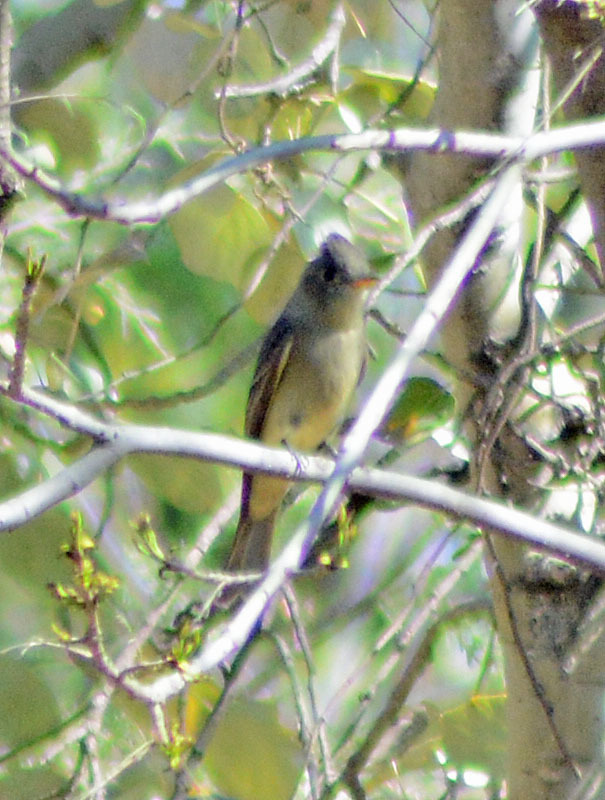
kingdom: Animalia
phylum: Chordata
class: Aves
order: Passeriformes
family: Tyrannidae
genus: Contopus
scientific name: Contopus pertinax
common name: Greater pewee
